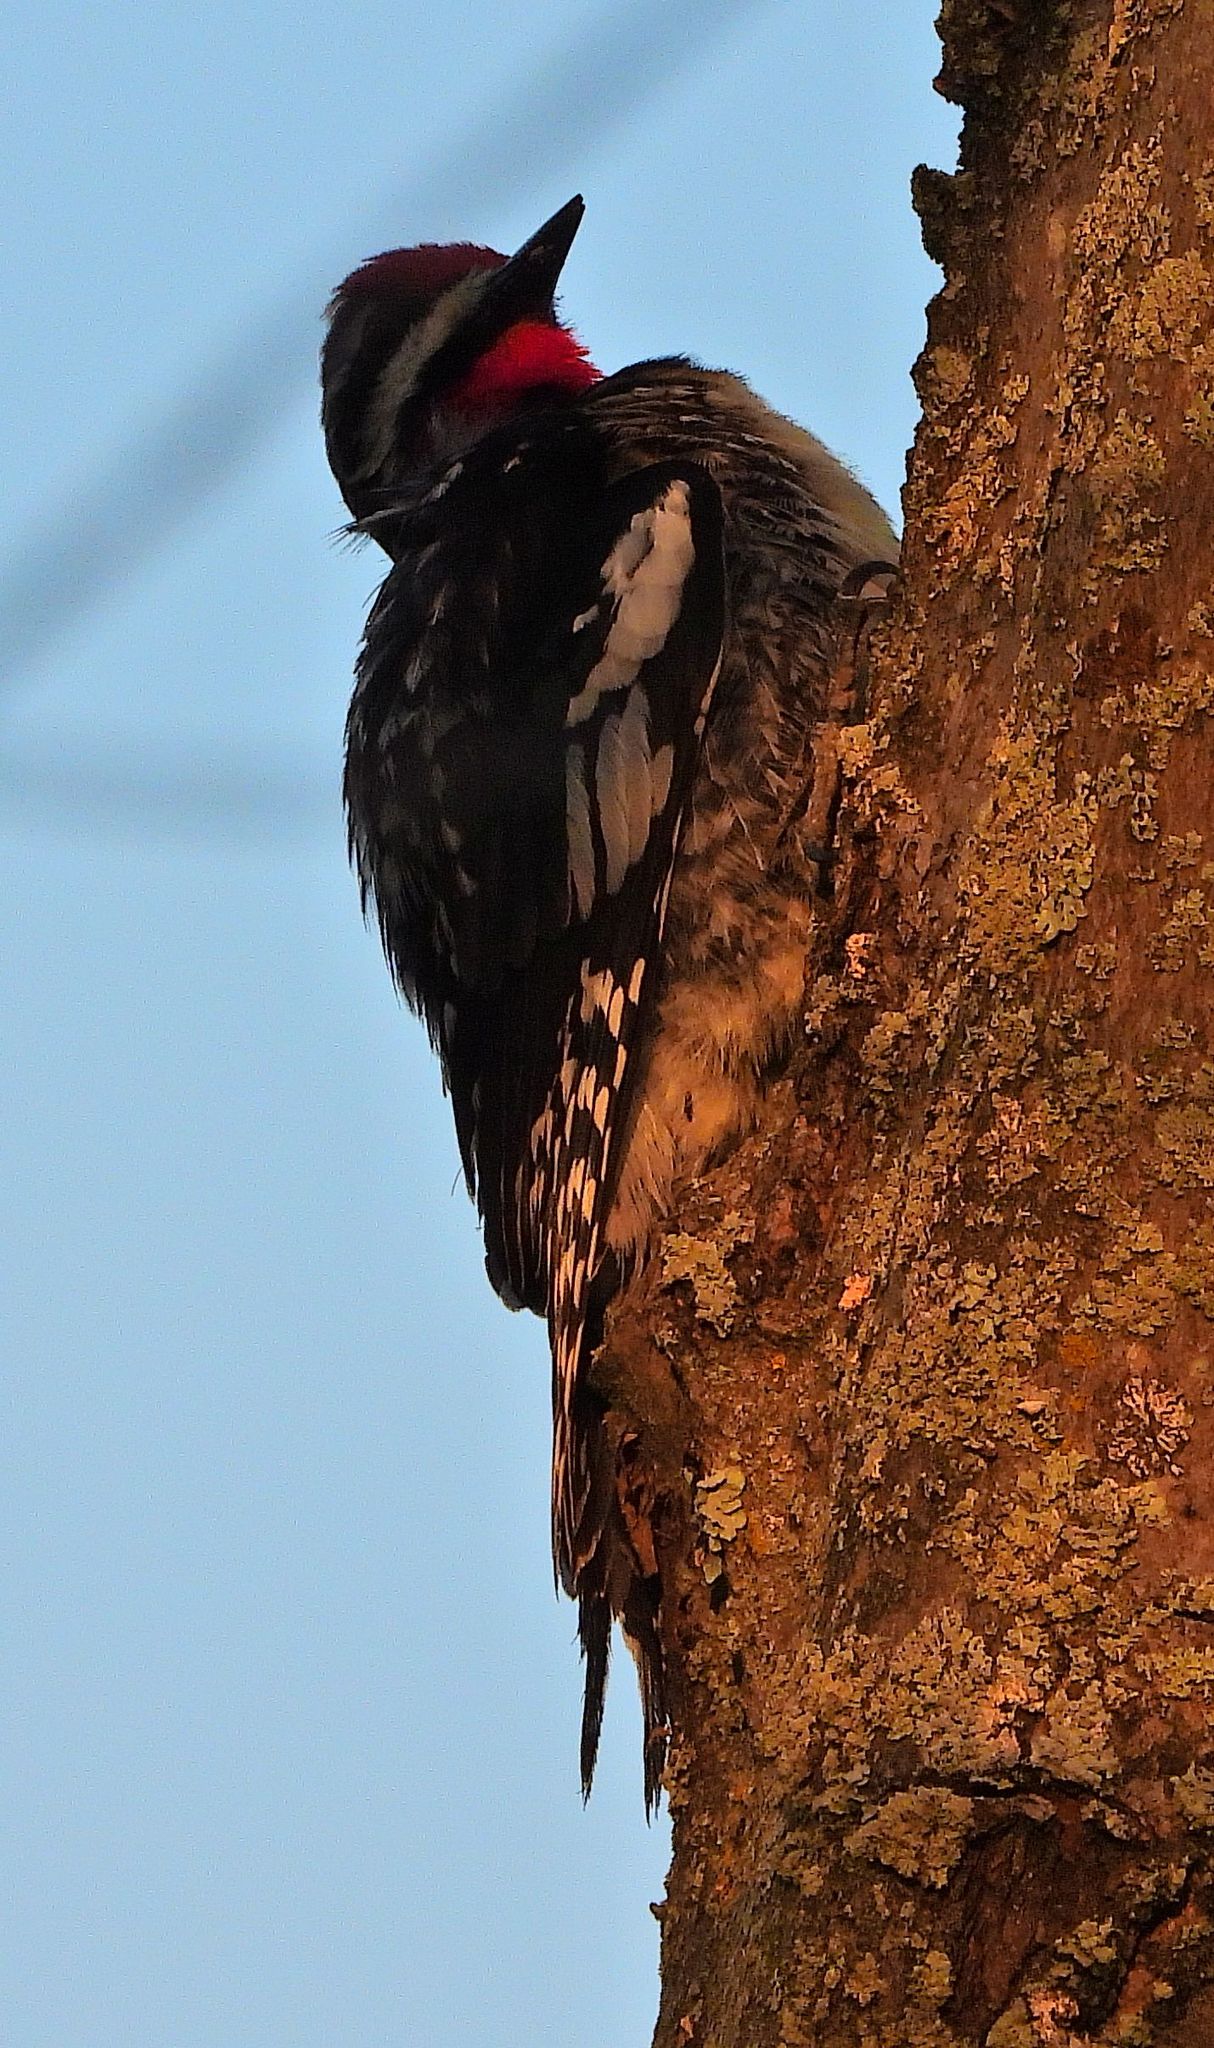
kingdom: Animalia
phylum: Chordata
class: Aves
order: Piciformes
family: Picidae
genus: Sphyrapicus
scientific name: Sphyrapicus varius
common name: Yellow-bellied sapsucker
